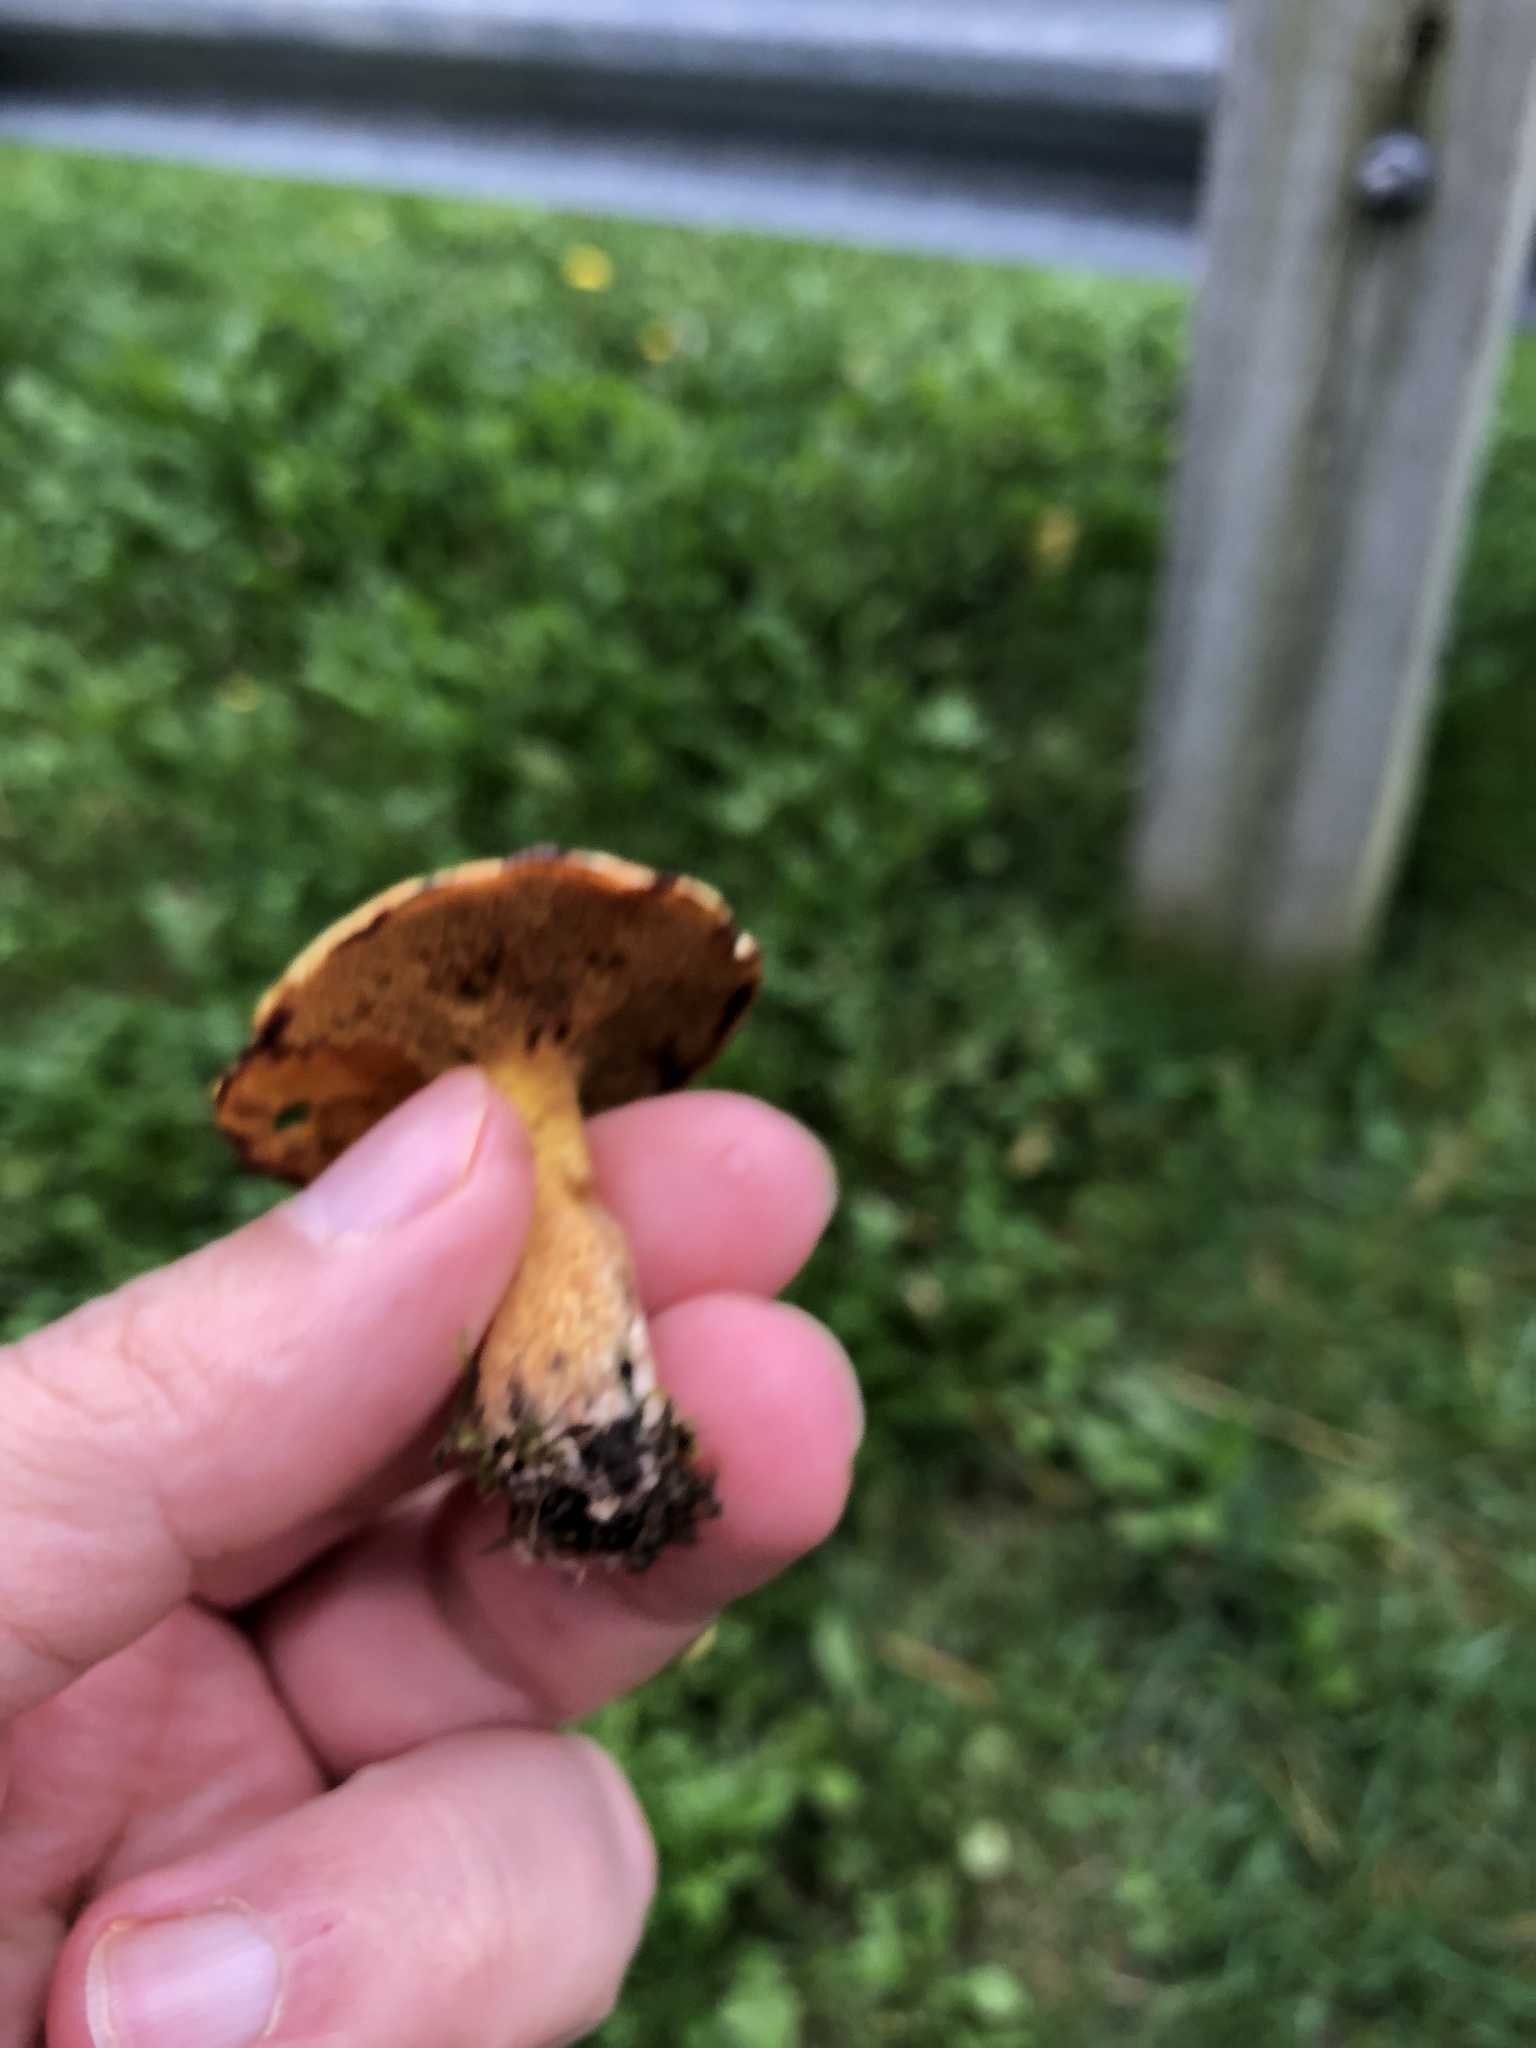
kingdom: Fungi
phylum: Basidiomycota
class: Agaricomycetes
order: Boletales
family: Suillaceae
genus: Suillus
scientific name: Suillus americanus
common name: Chicken fat mushroom
